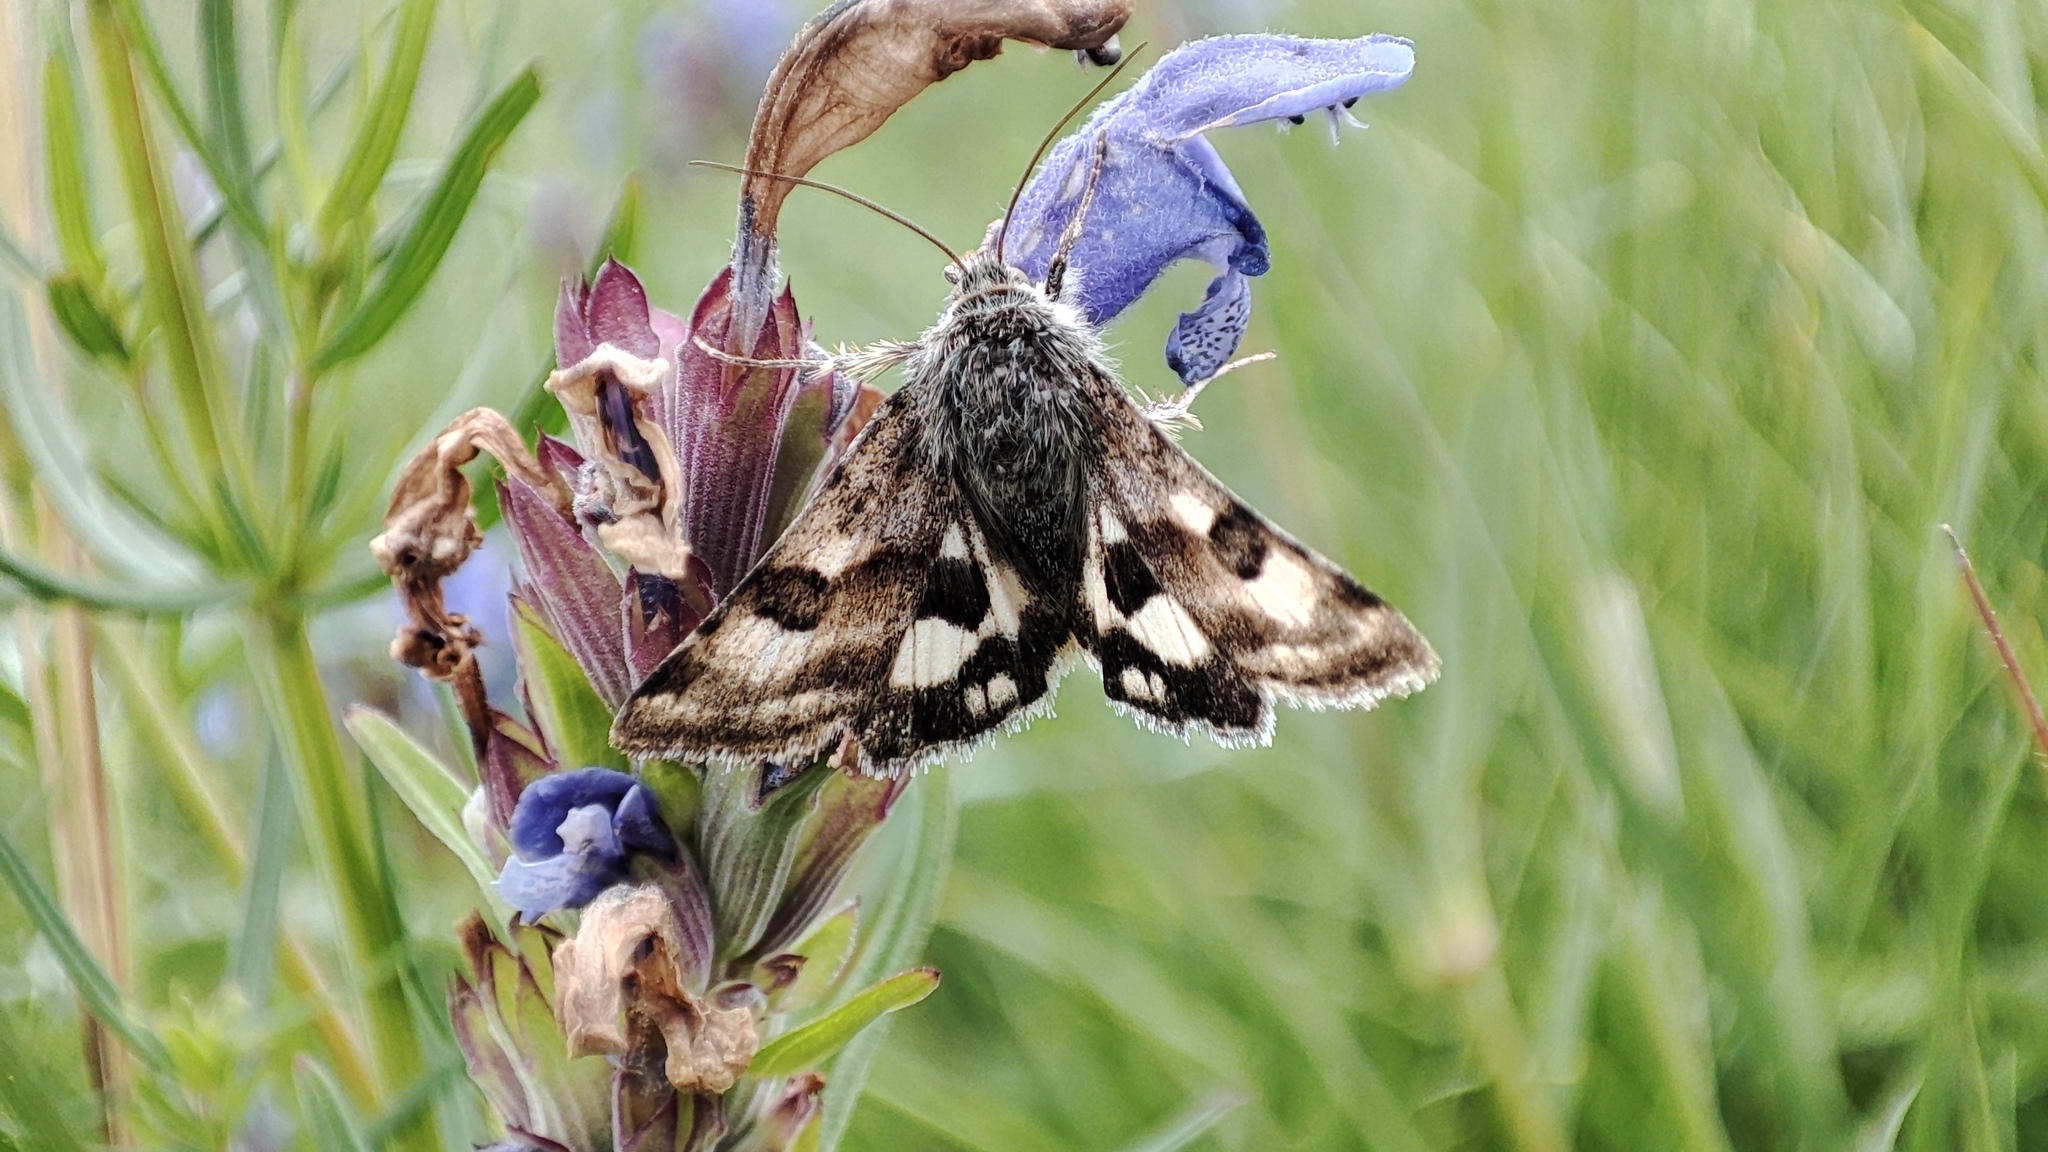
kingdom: Animalia
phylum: Arthropoda
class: Insecta
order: Lepidoptera
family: Noctuidae
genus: Heliothis
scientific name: Heliothis ononis
